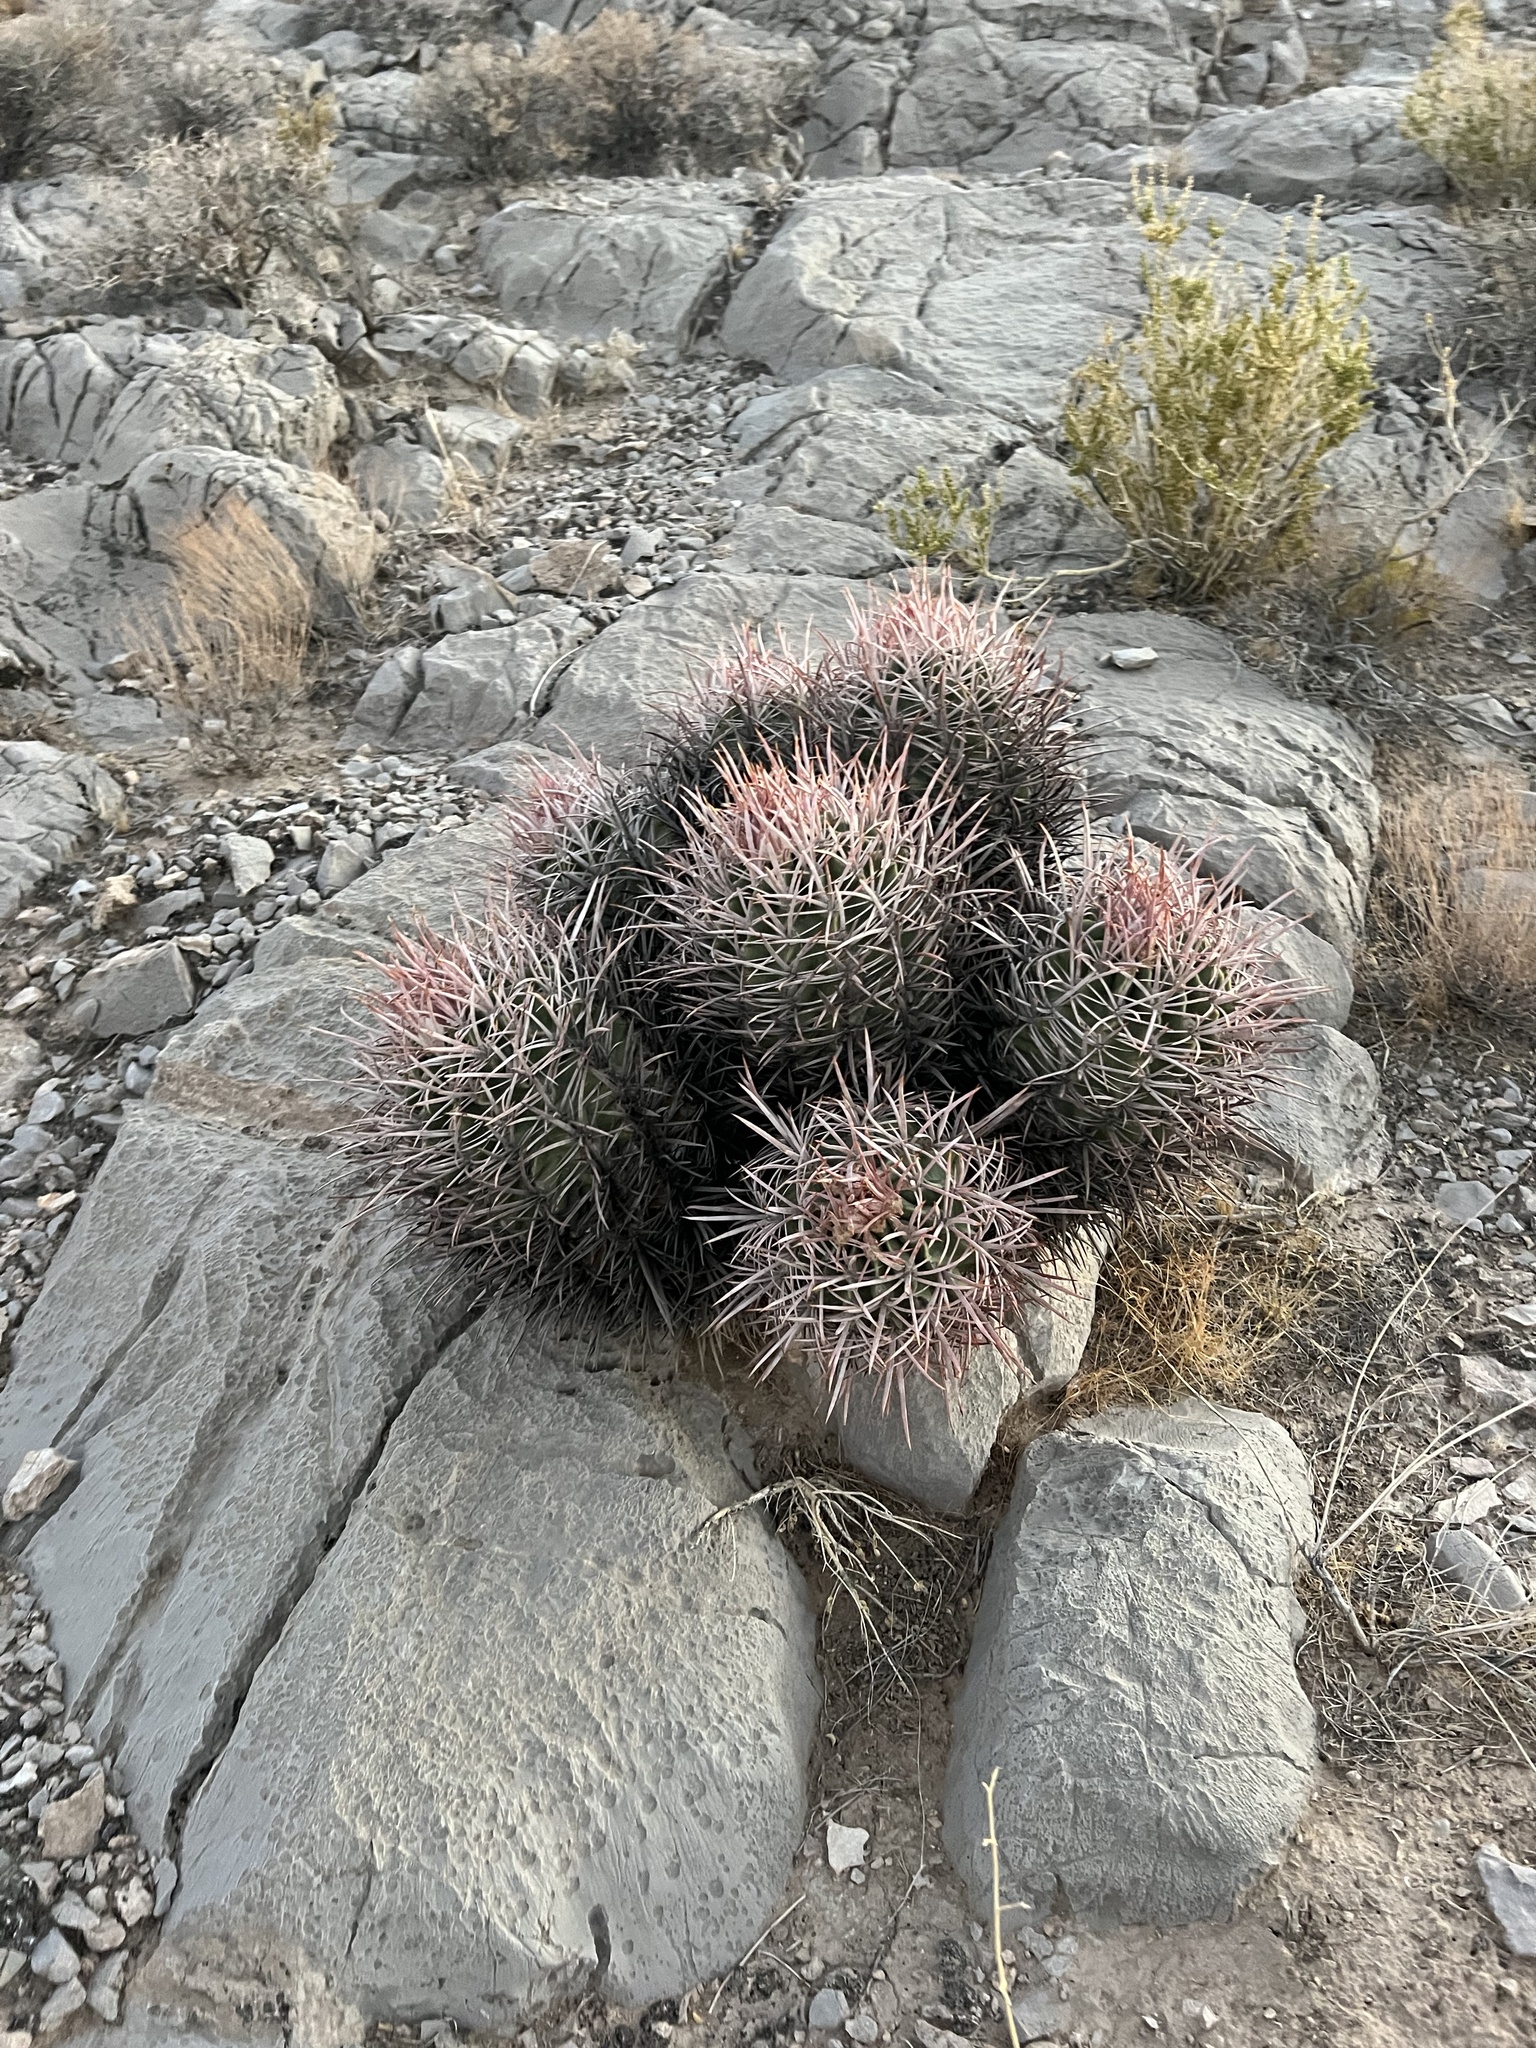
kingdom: Plantae
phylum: Tracheophyta
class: Magnoliopsida
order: Caryophyllales
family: Cactaceae
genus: Echinocactus
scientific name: Echinocactus polycephalus
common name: Cottontop cactus
